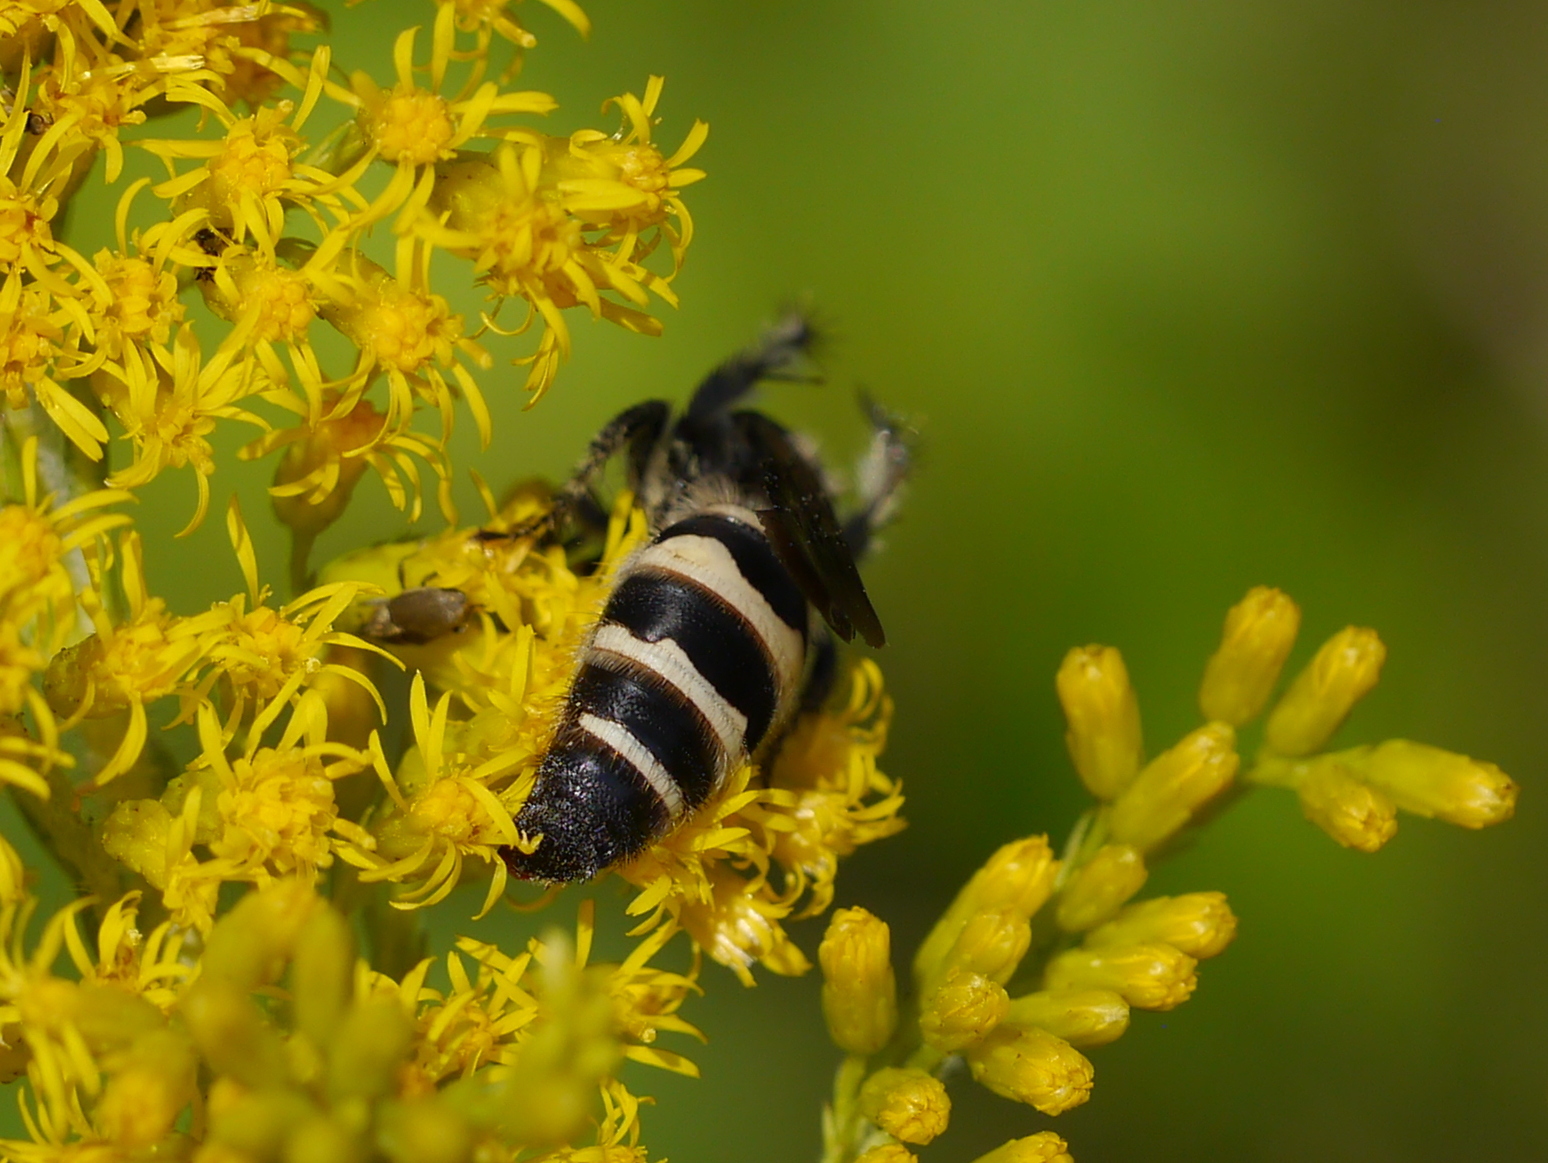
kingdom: Animalia
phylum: Arthropoda
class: Insecta
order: Hymenoptera
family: Scoliidae
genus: Dielis
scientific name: Dielis
